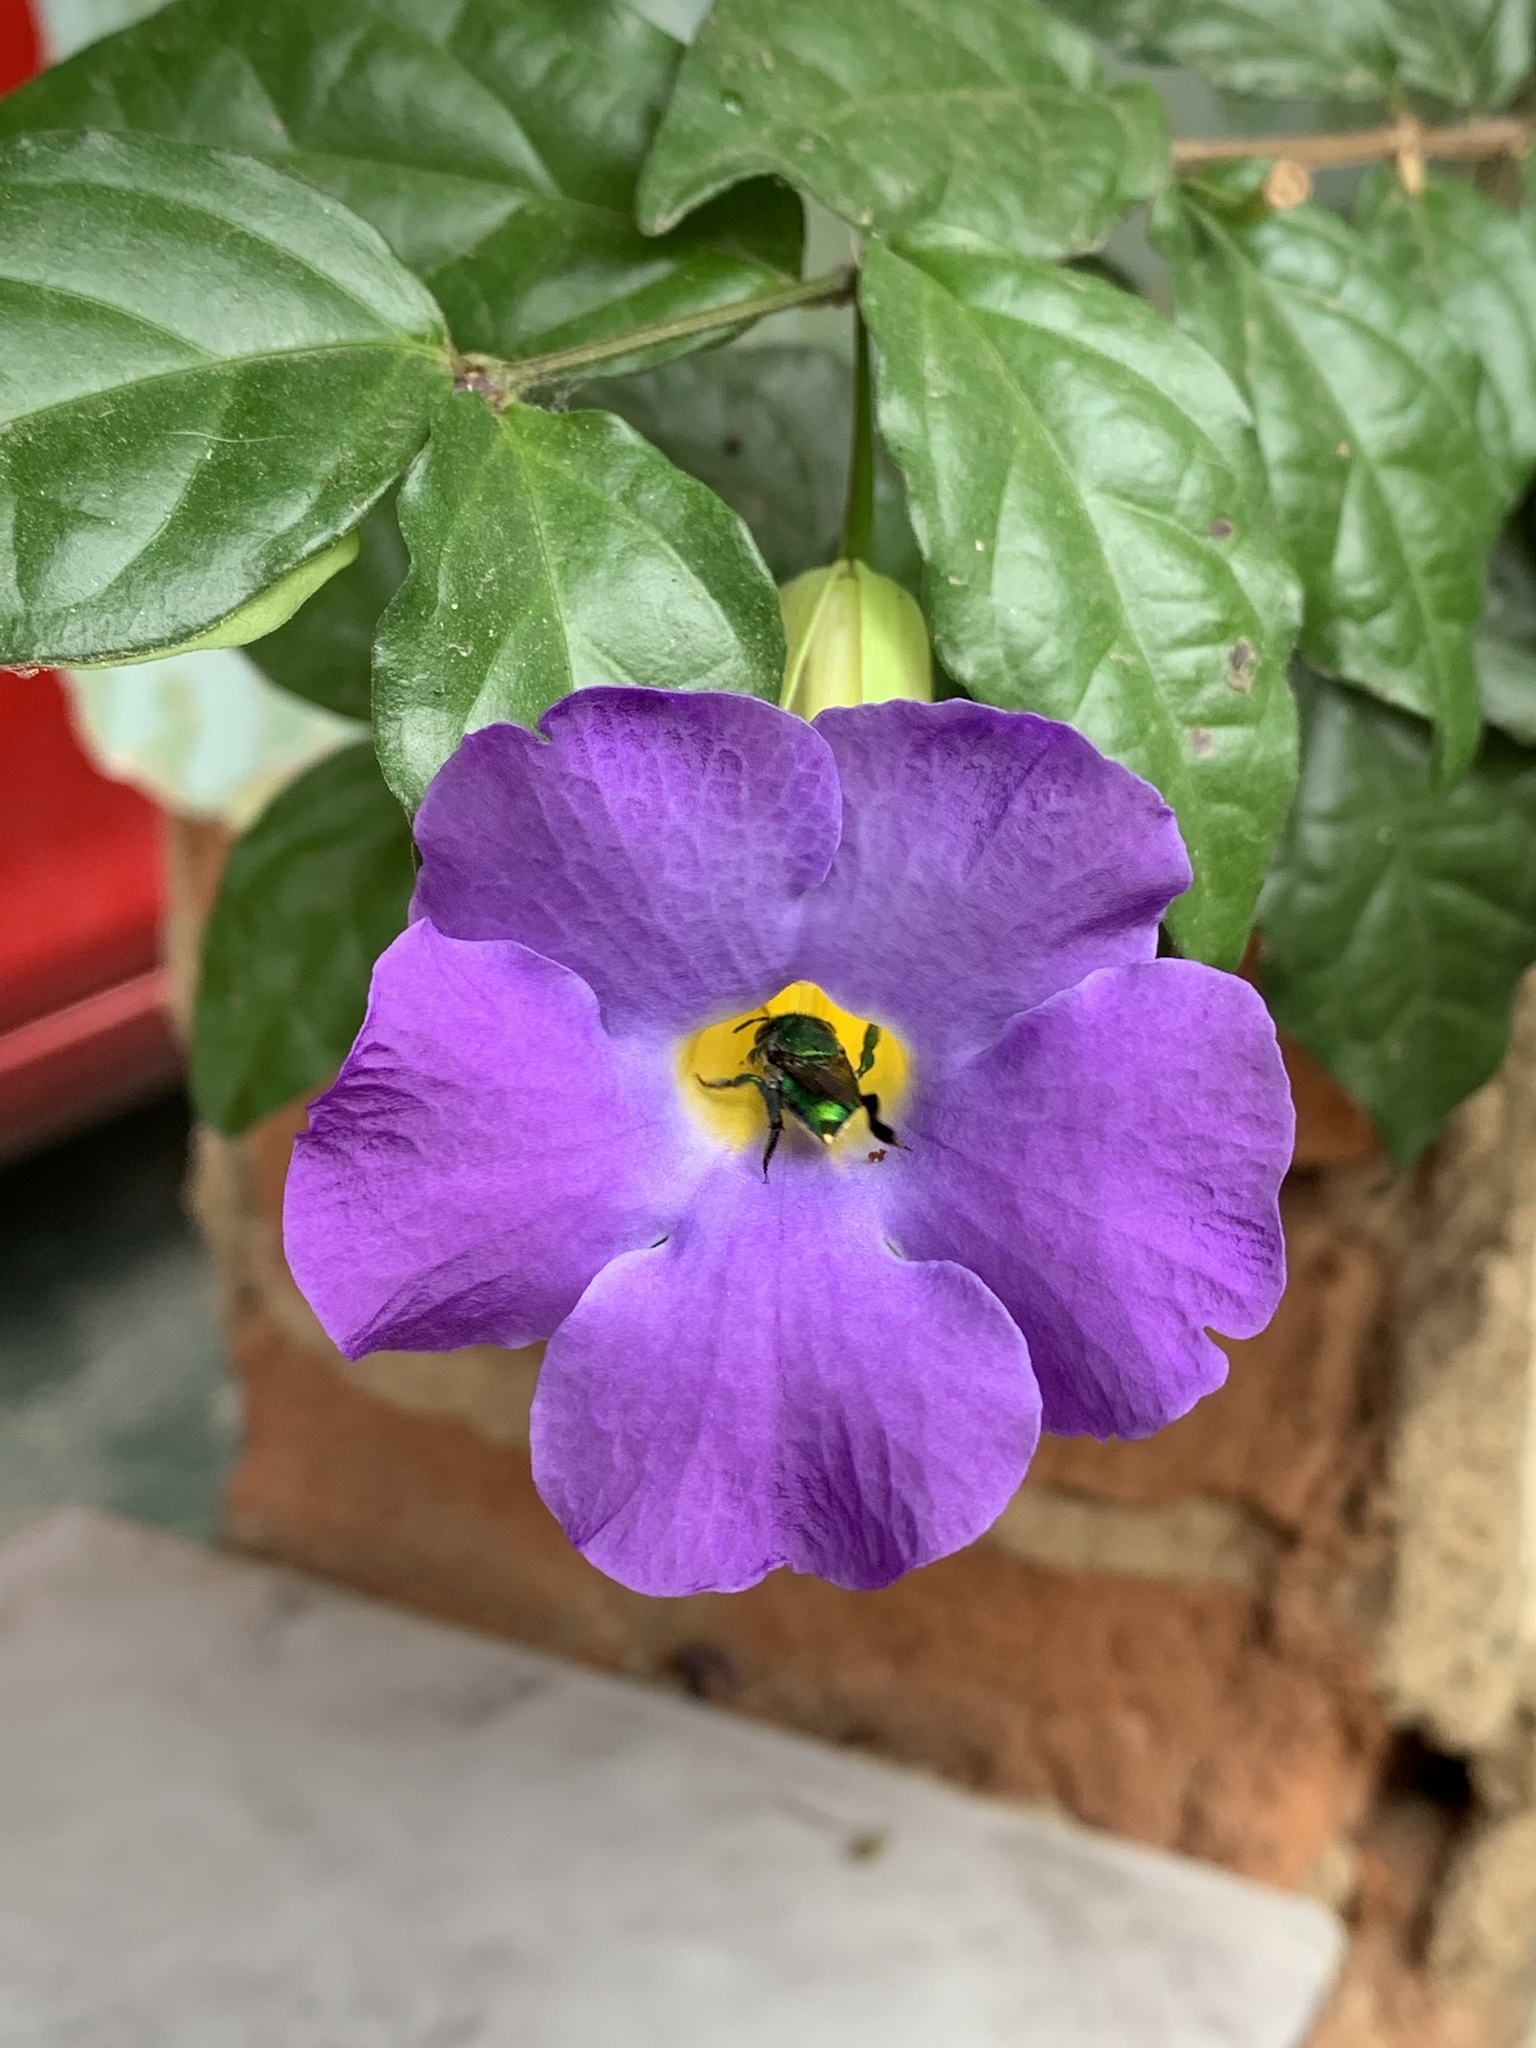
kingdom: Animalia
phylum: Arthropoda
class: Insecta
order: Hymenoptera
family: Apidae
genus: Euglossa
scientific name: Euglossa imperialis
